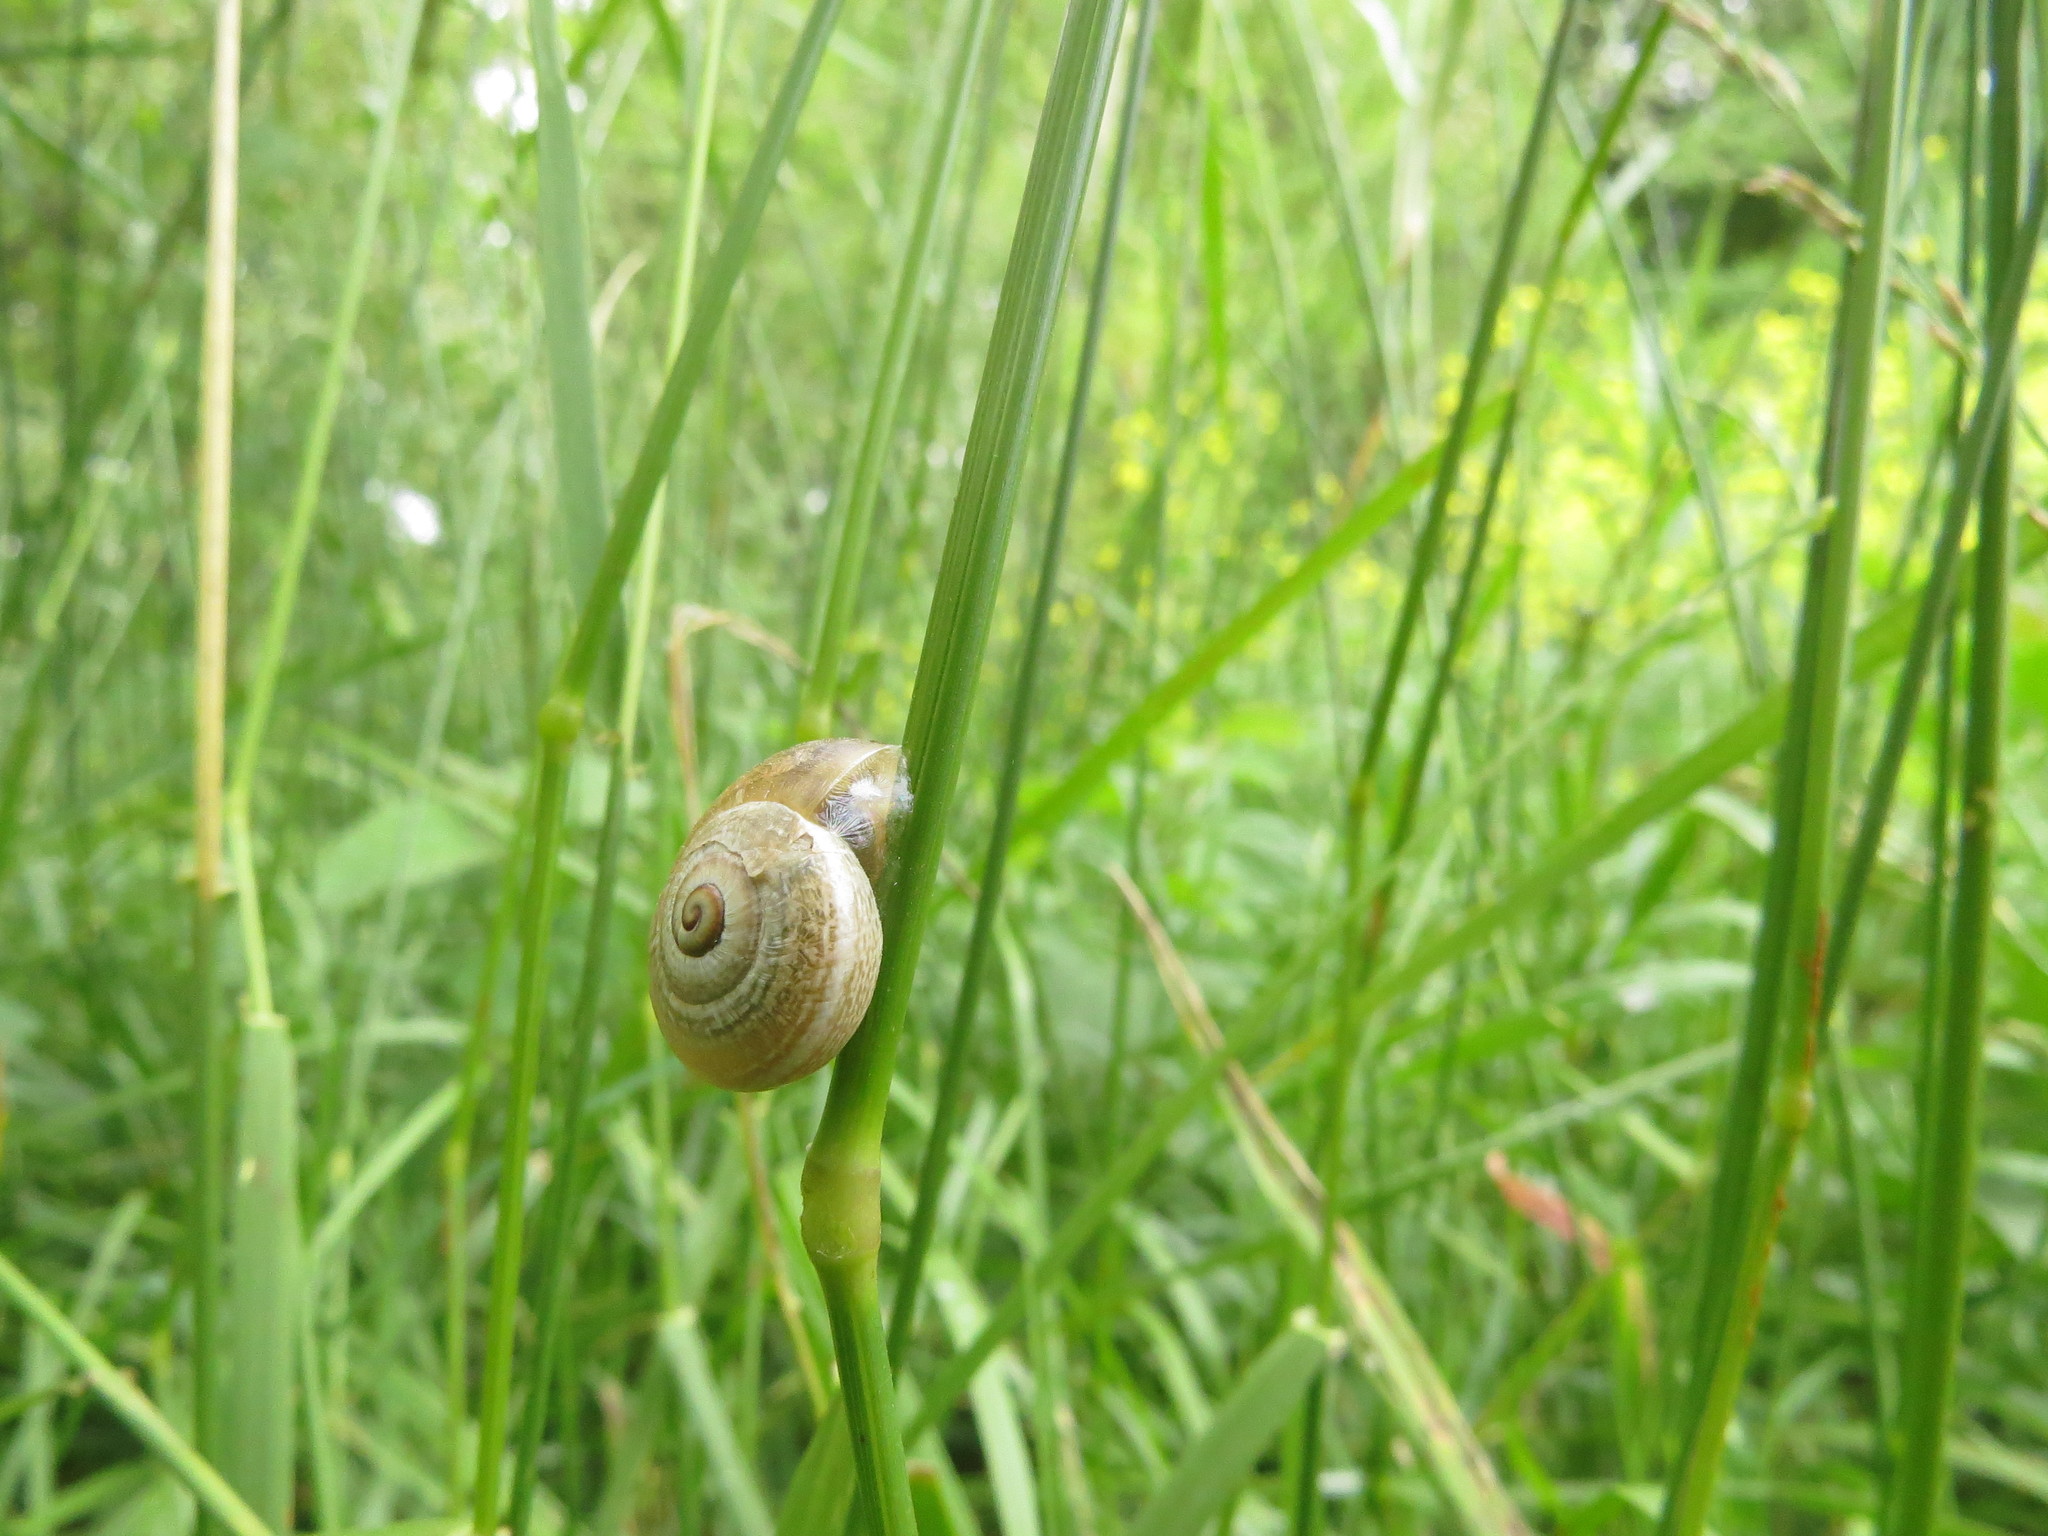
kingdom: Animalia
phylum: Mollusca
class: Gastropoda
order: Stylommatophora
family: Helicidae
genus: Otala
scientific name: Otala punctata
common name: Milk snail
